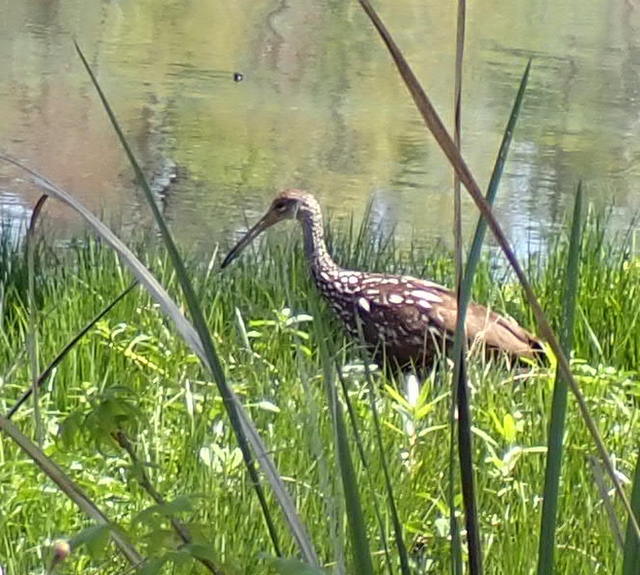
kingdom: Animalia
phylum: Chordata
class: Aves
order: Gruiformes
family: Aramidae
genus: Aramus
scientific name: Aramus guarauna
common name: Limpkin
